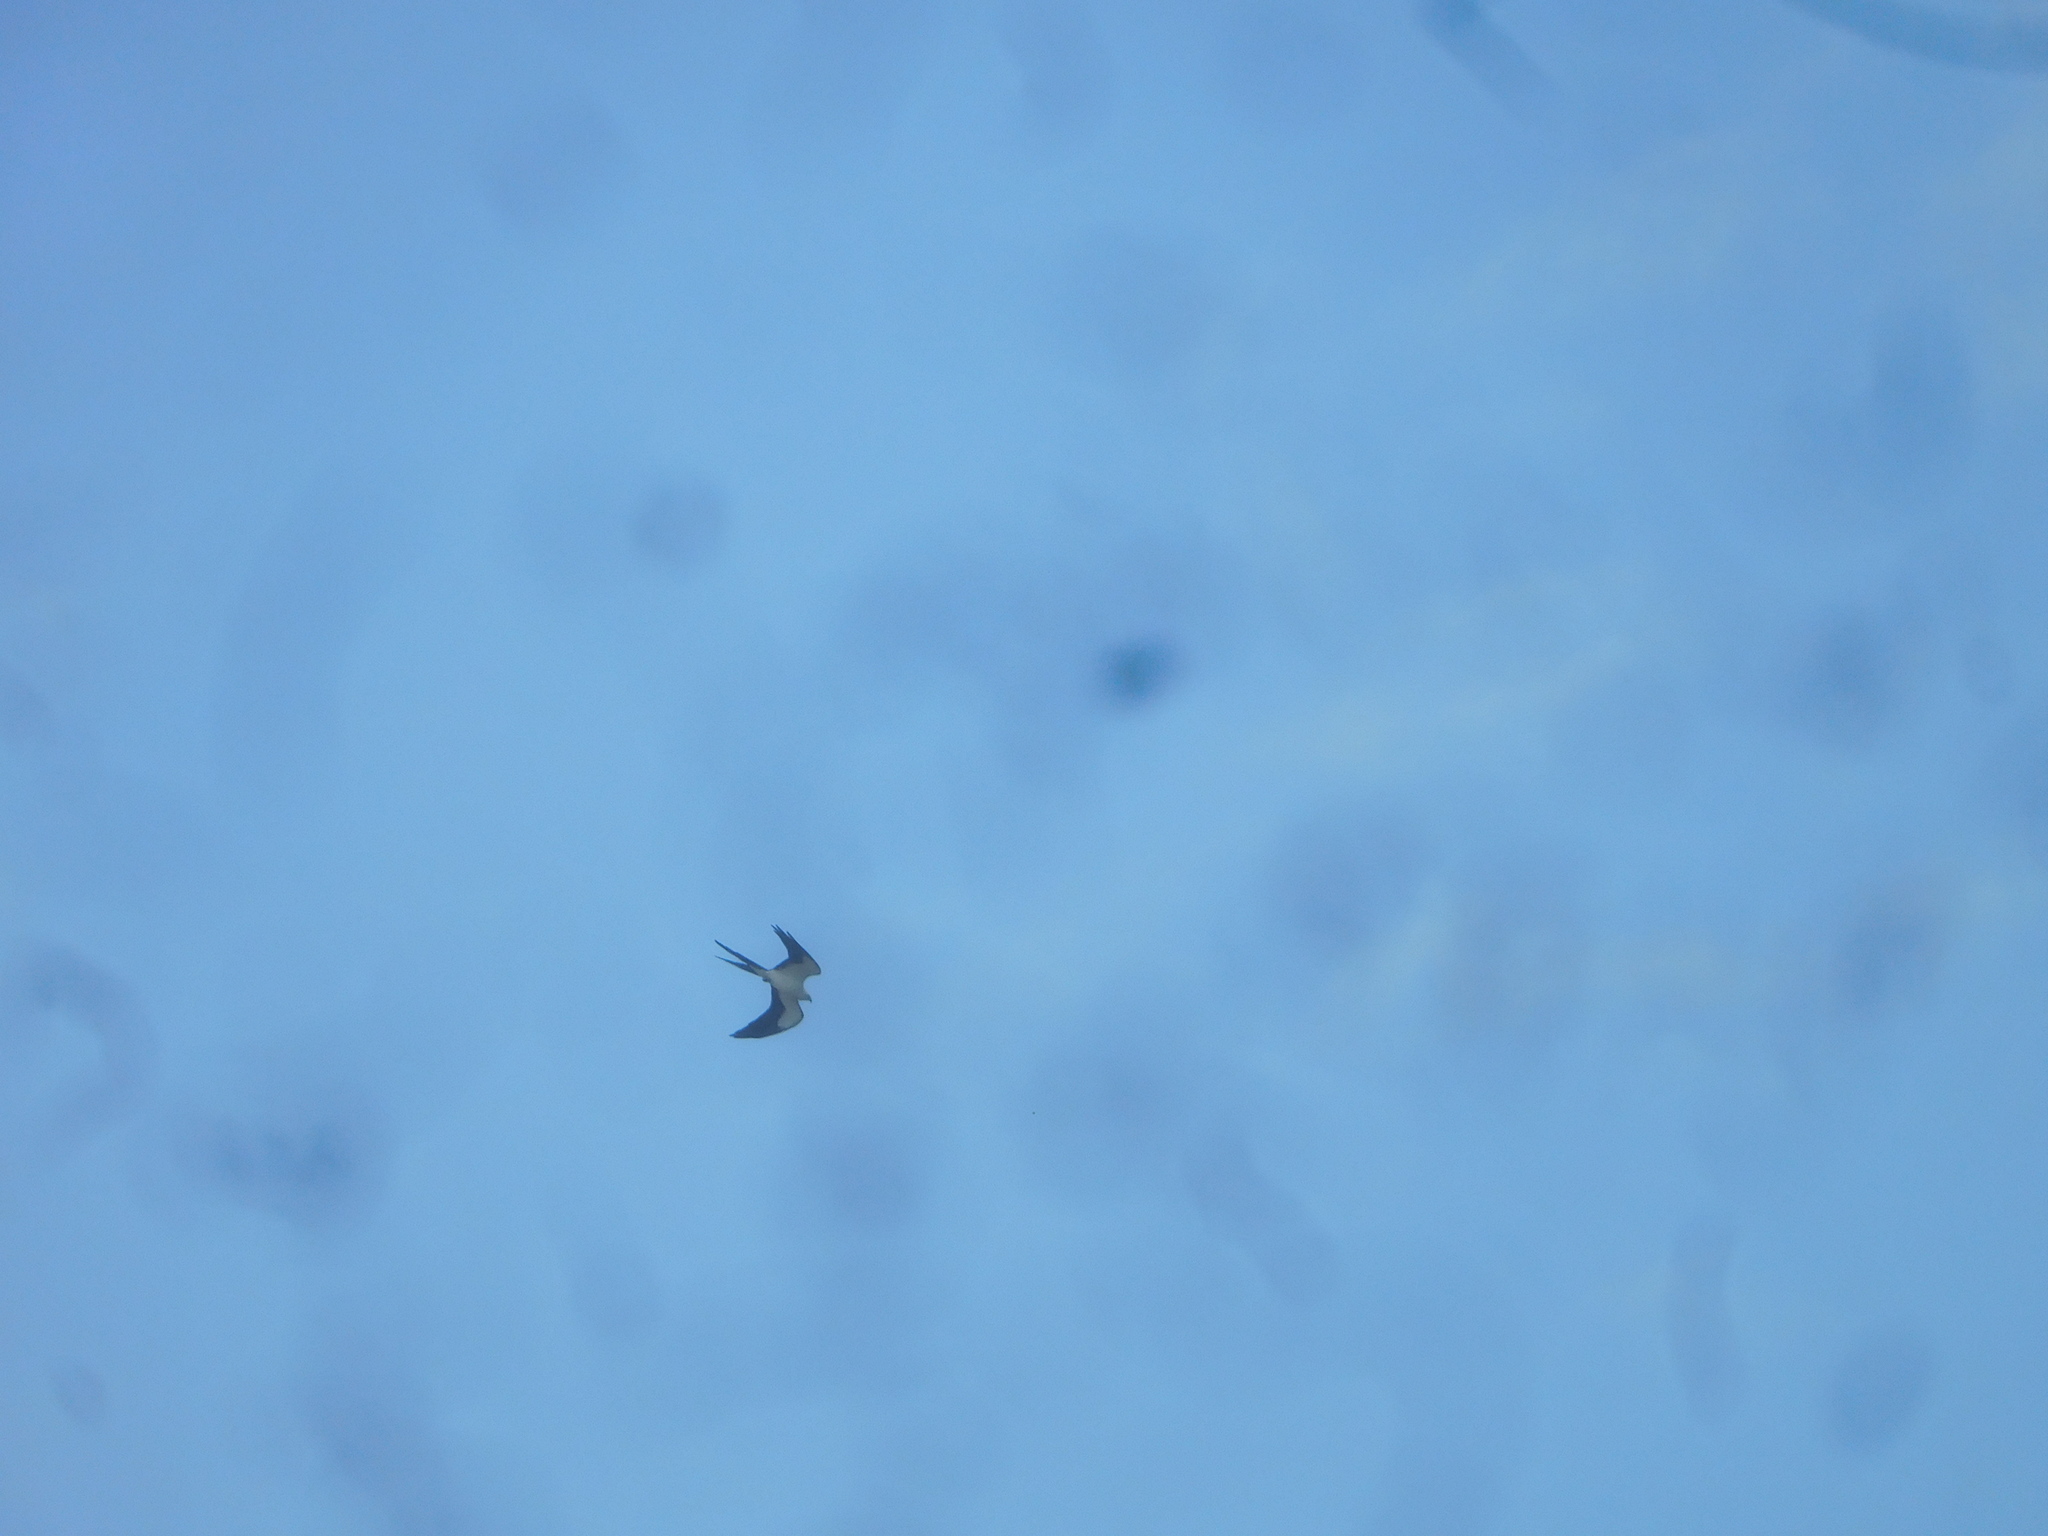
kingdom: Animalia
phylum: Chordata
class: Aves
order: Accipitriformes
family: Accipitridae
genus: Elanoides
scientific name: Elanoides forficatus
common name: Swallow-tailed kite
